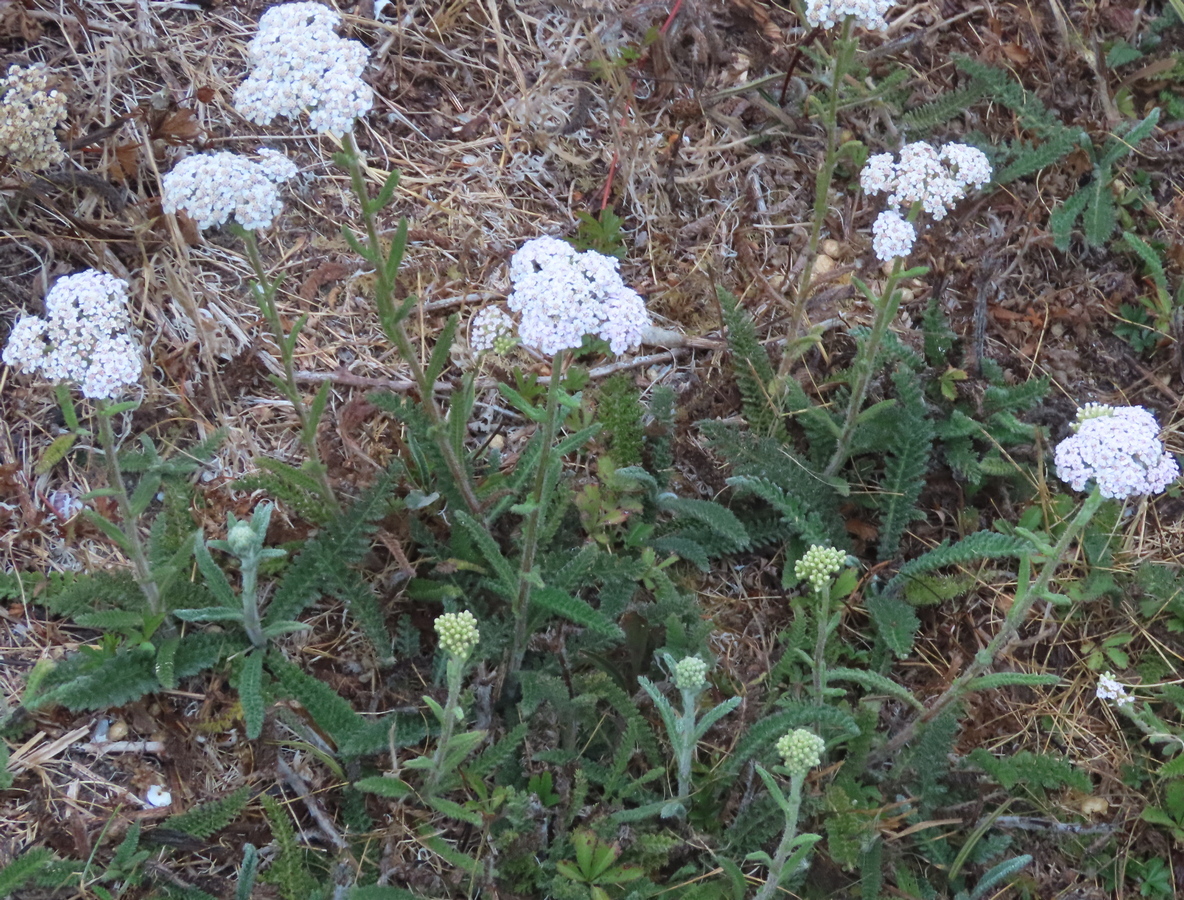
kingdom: Plantae
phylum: Tracheophyta
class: Magnoliopsida
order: Asterales
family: Asteraceae
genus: Achillea
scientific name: Achillea millefolium
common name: Yarrow
